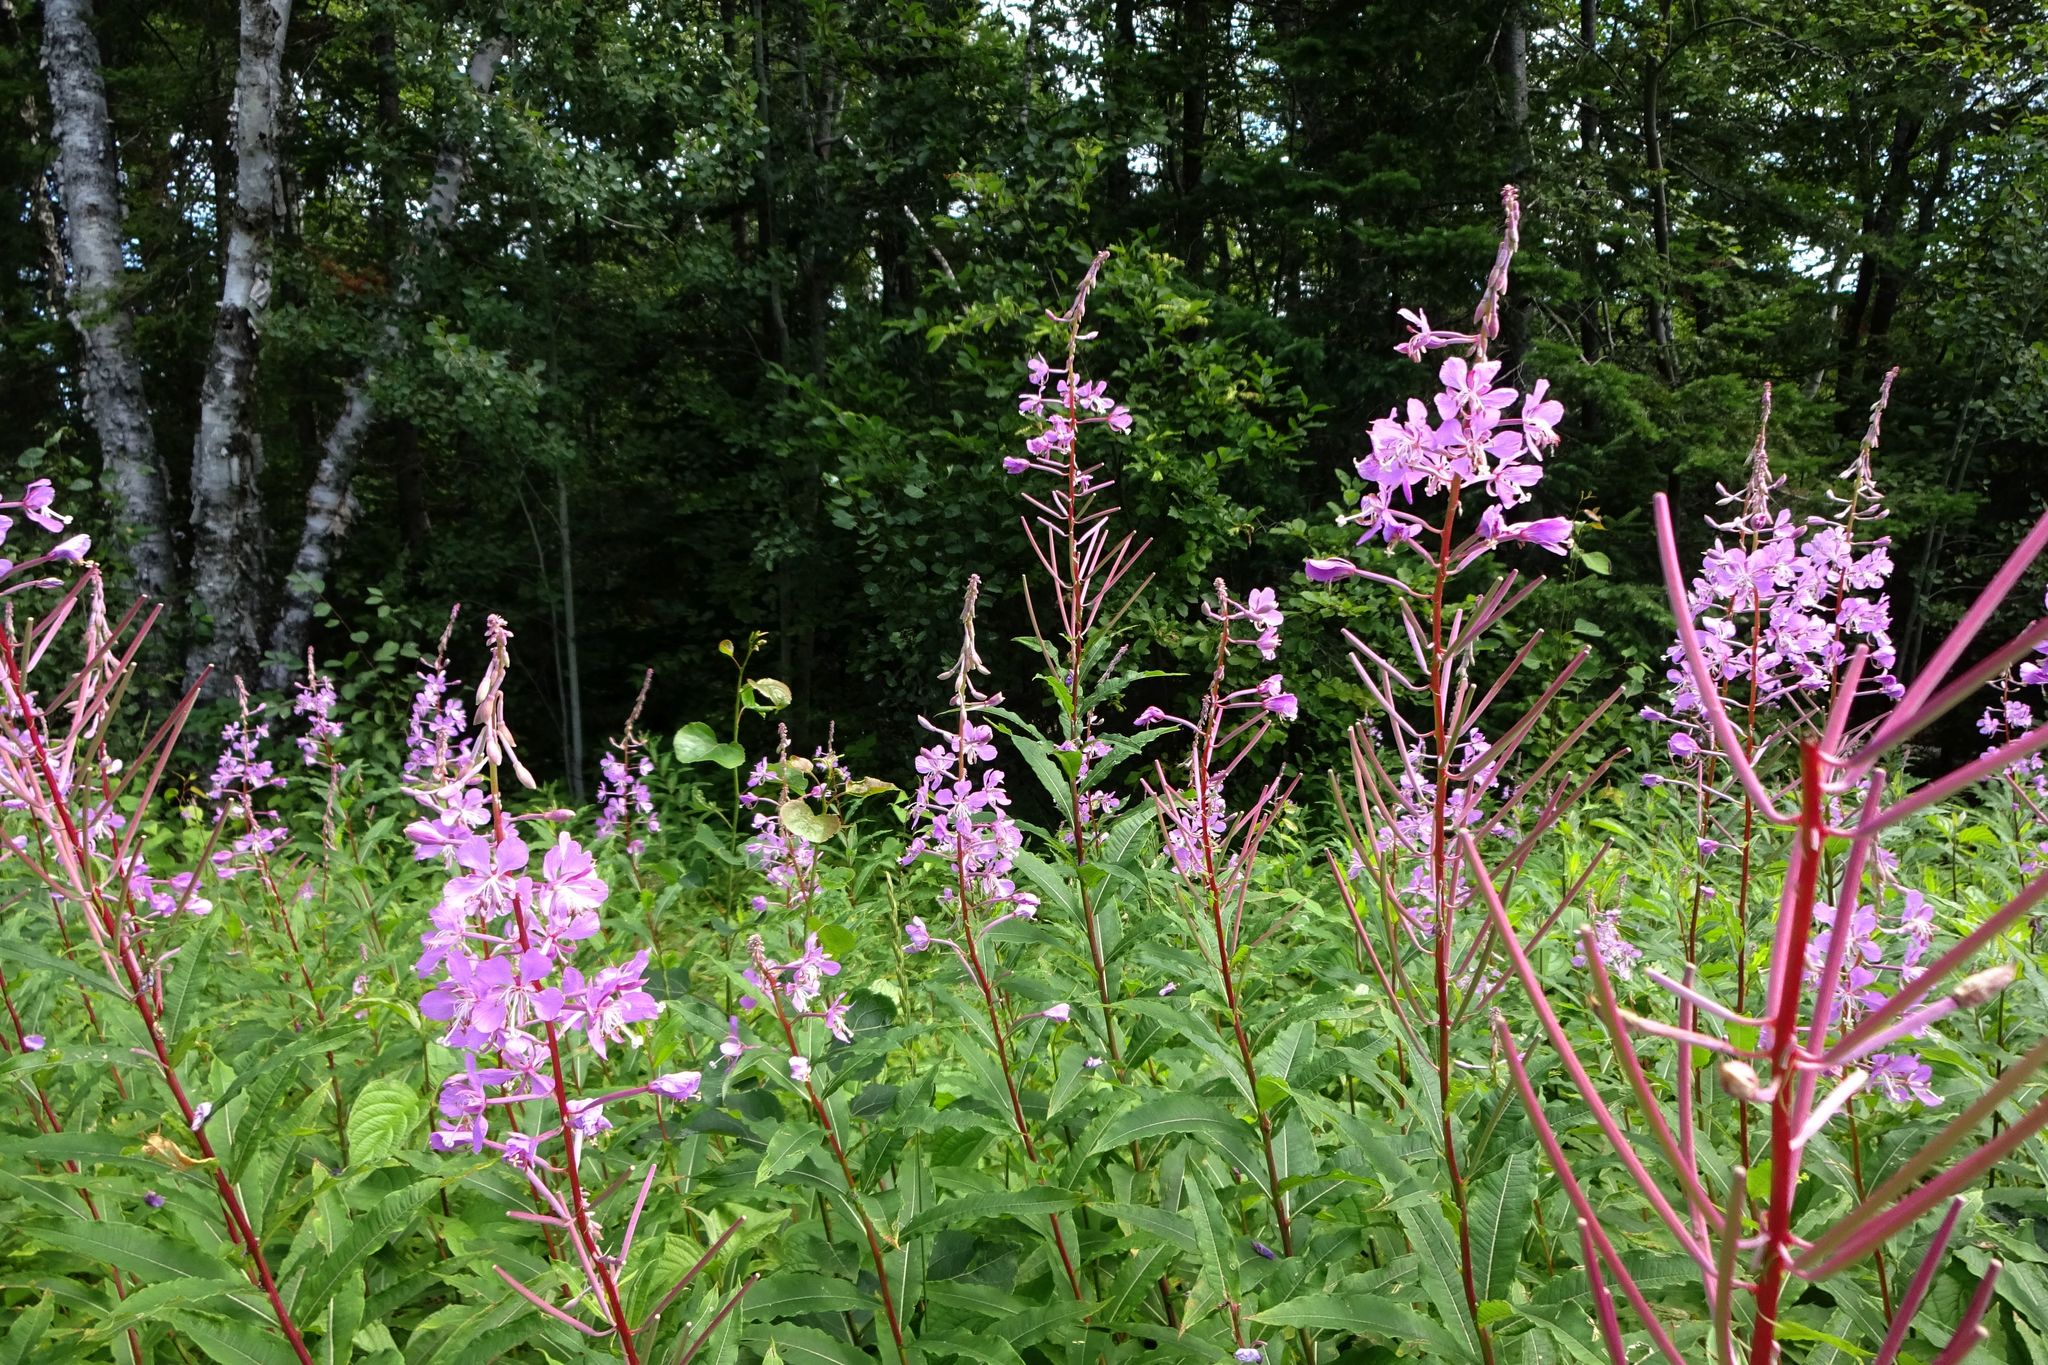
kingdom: Plantae
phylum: Tracheophyta
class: Magnoliopsida
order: Myrtales
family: Onagraceae
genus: Chamaenerion
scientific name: Chamaenerion angustifolium
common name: Fireweed
